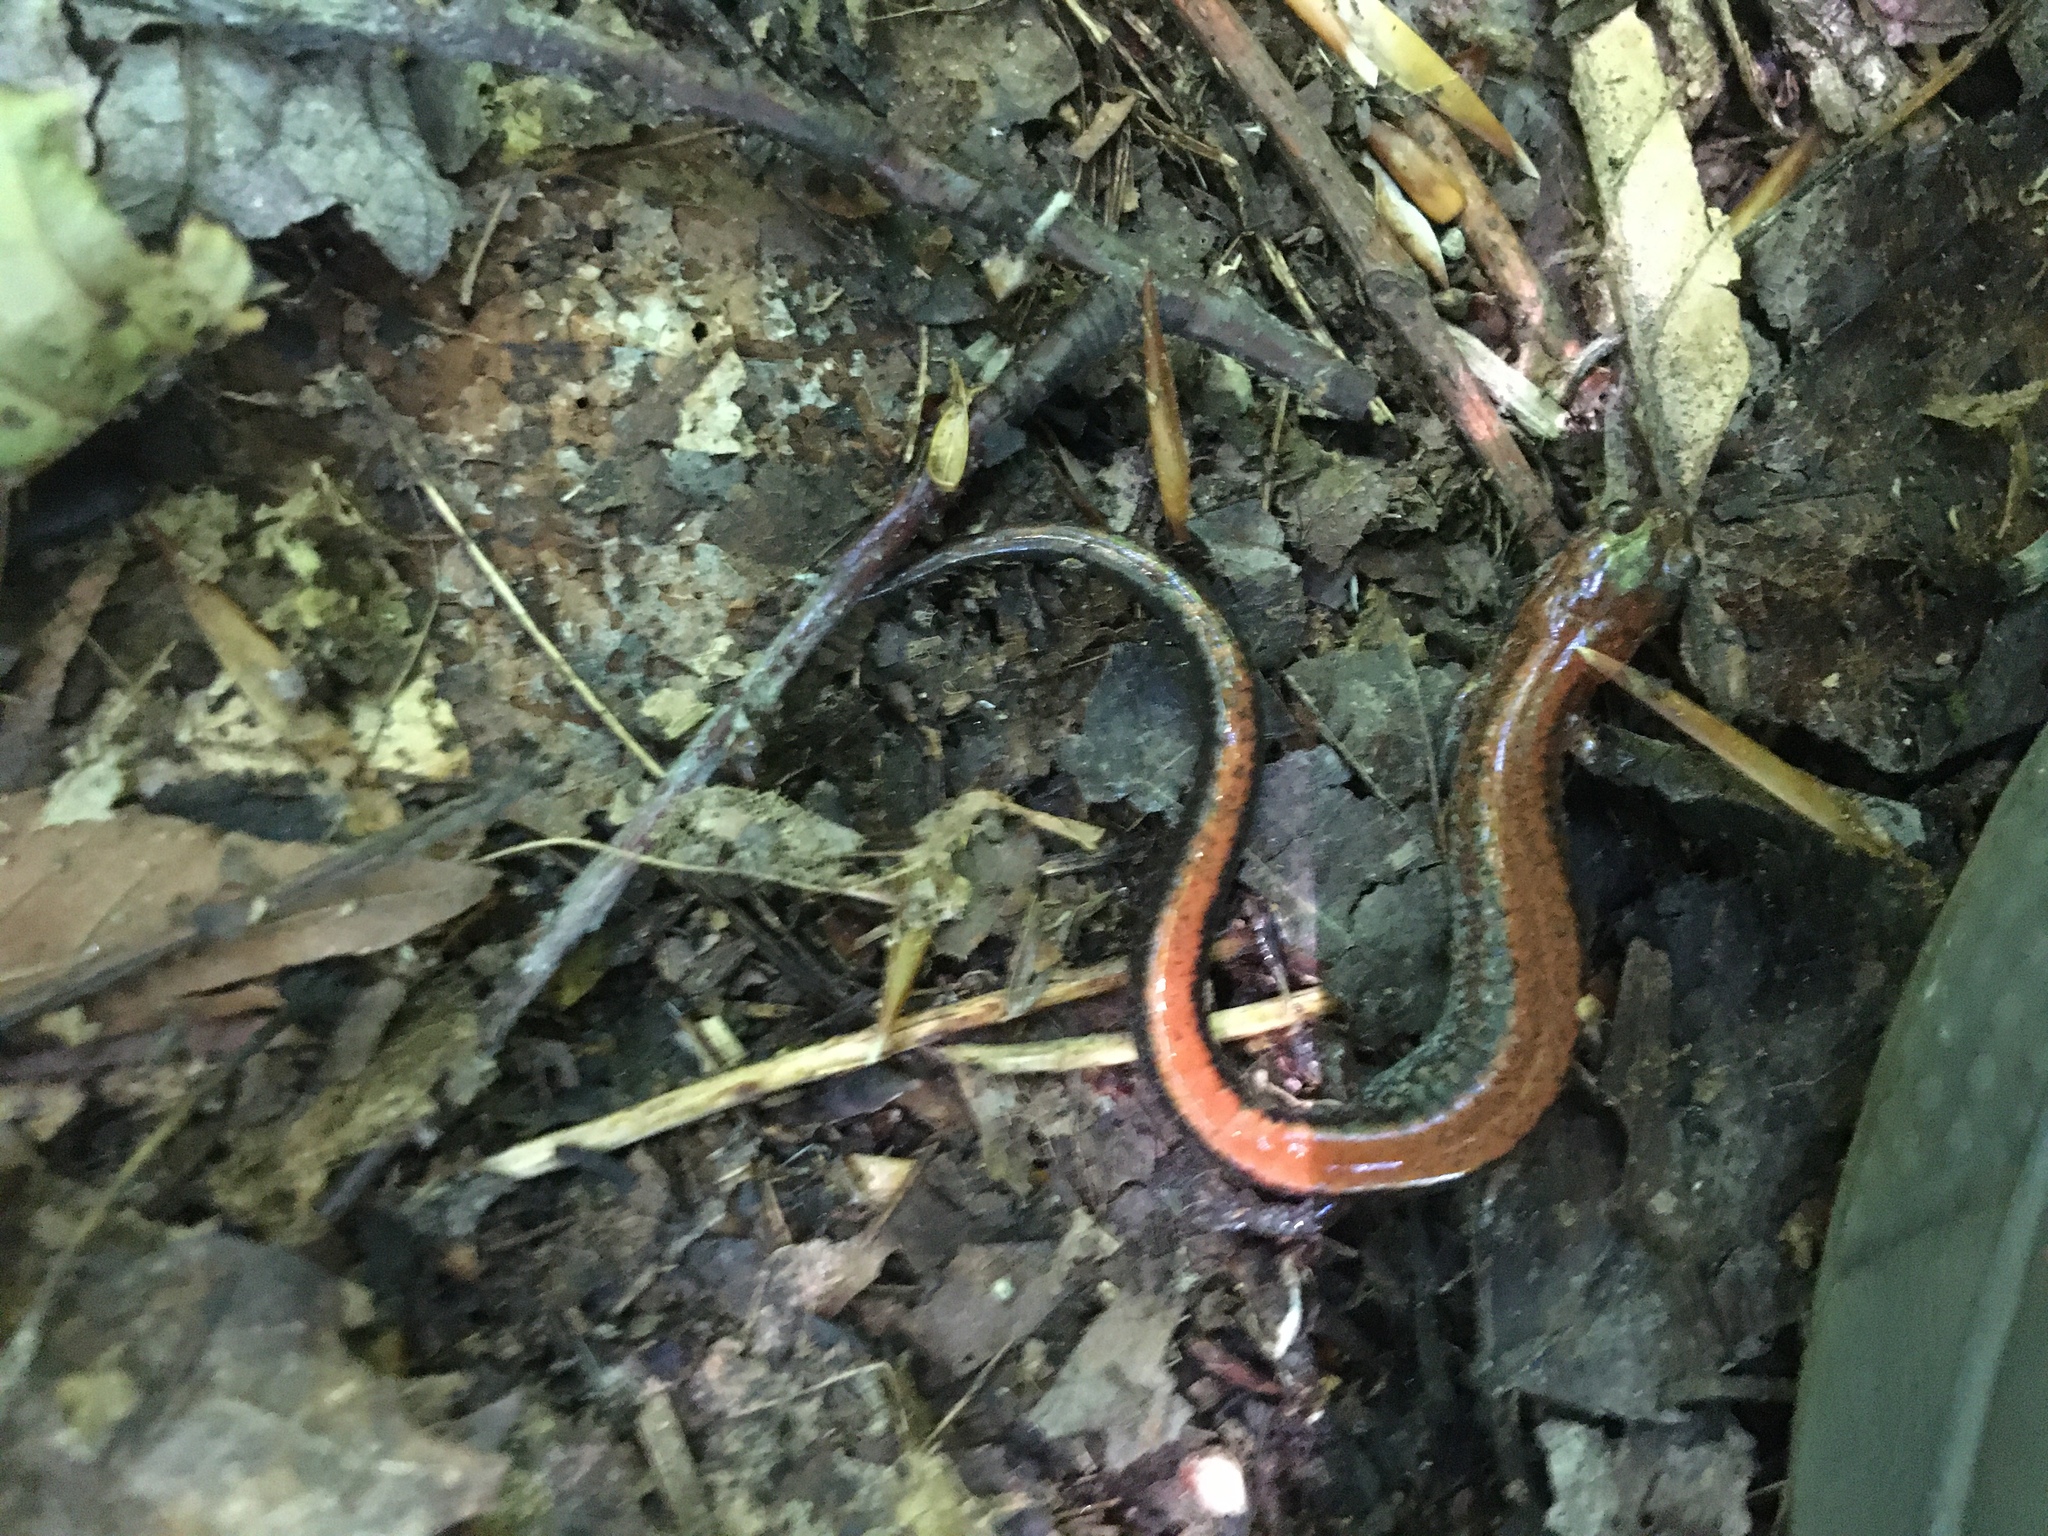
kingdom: Animalia
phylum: Chordata
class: Amphibia
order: Caudata
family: Plethodontidae
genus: Plethodon
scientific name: Plethodon cinereus
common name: Redback salamander
